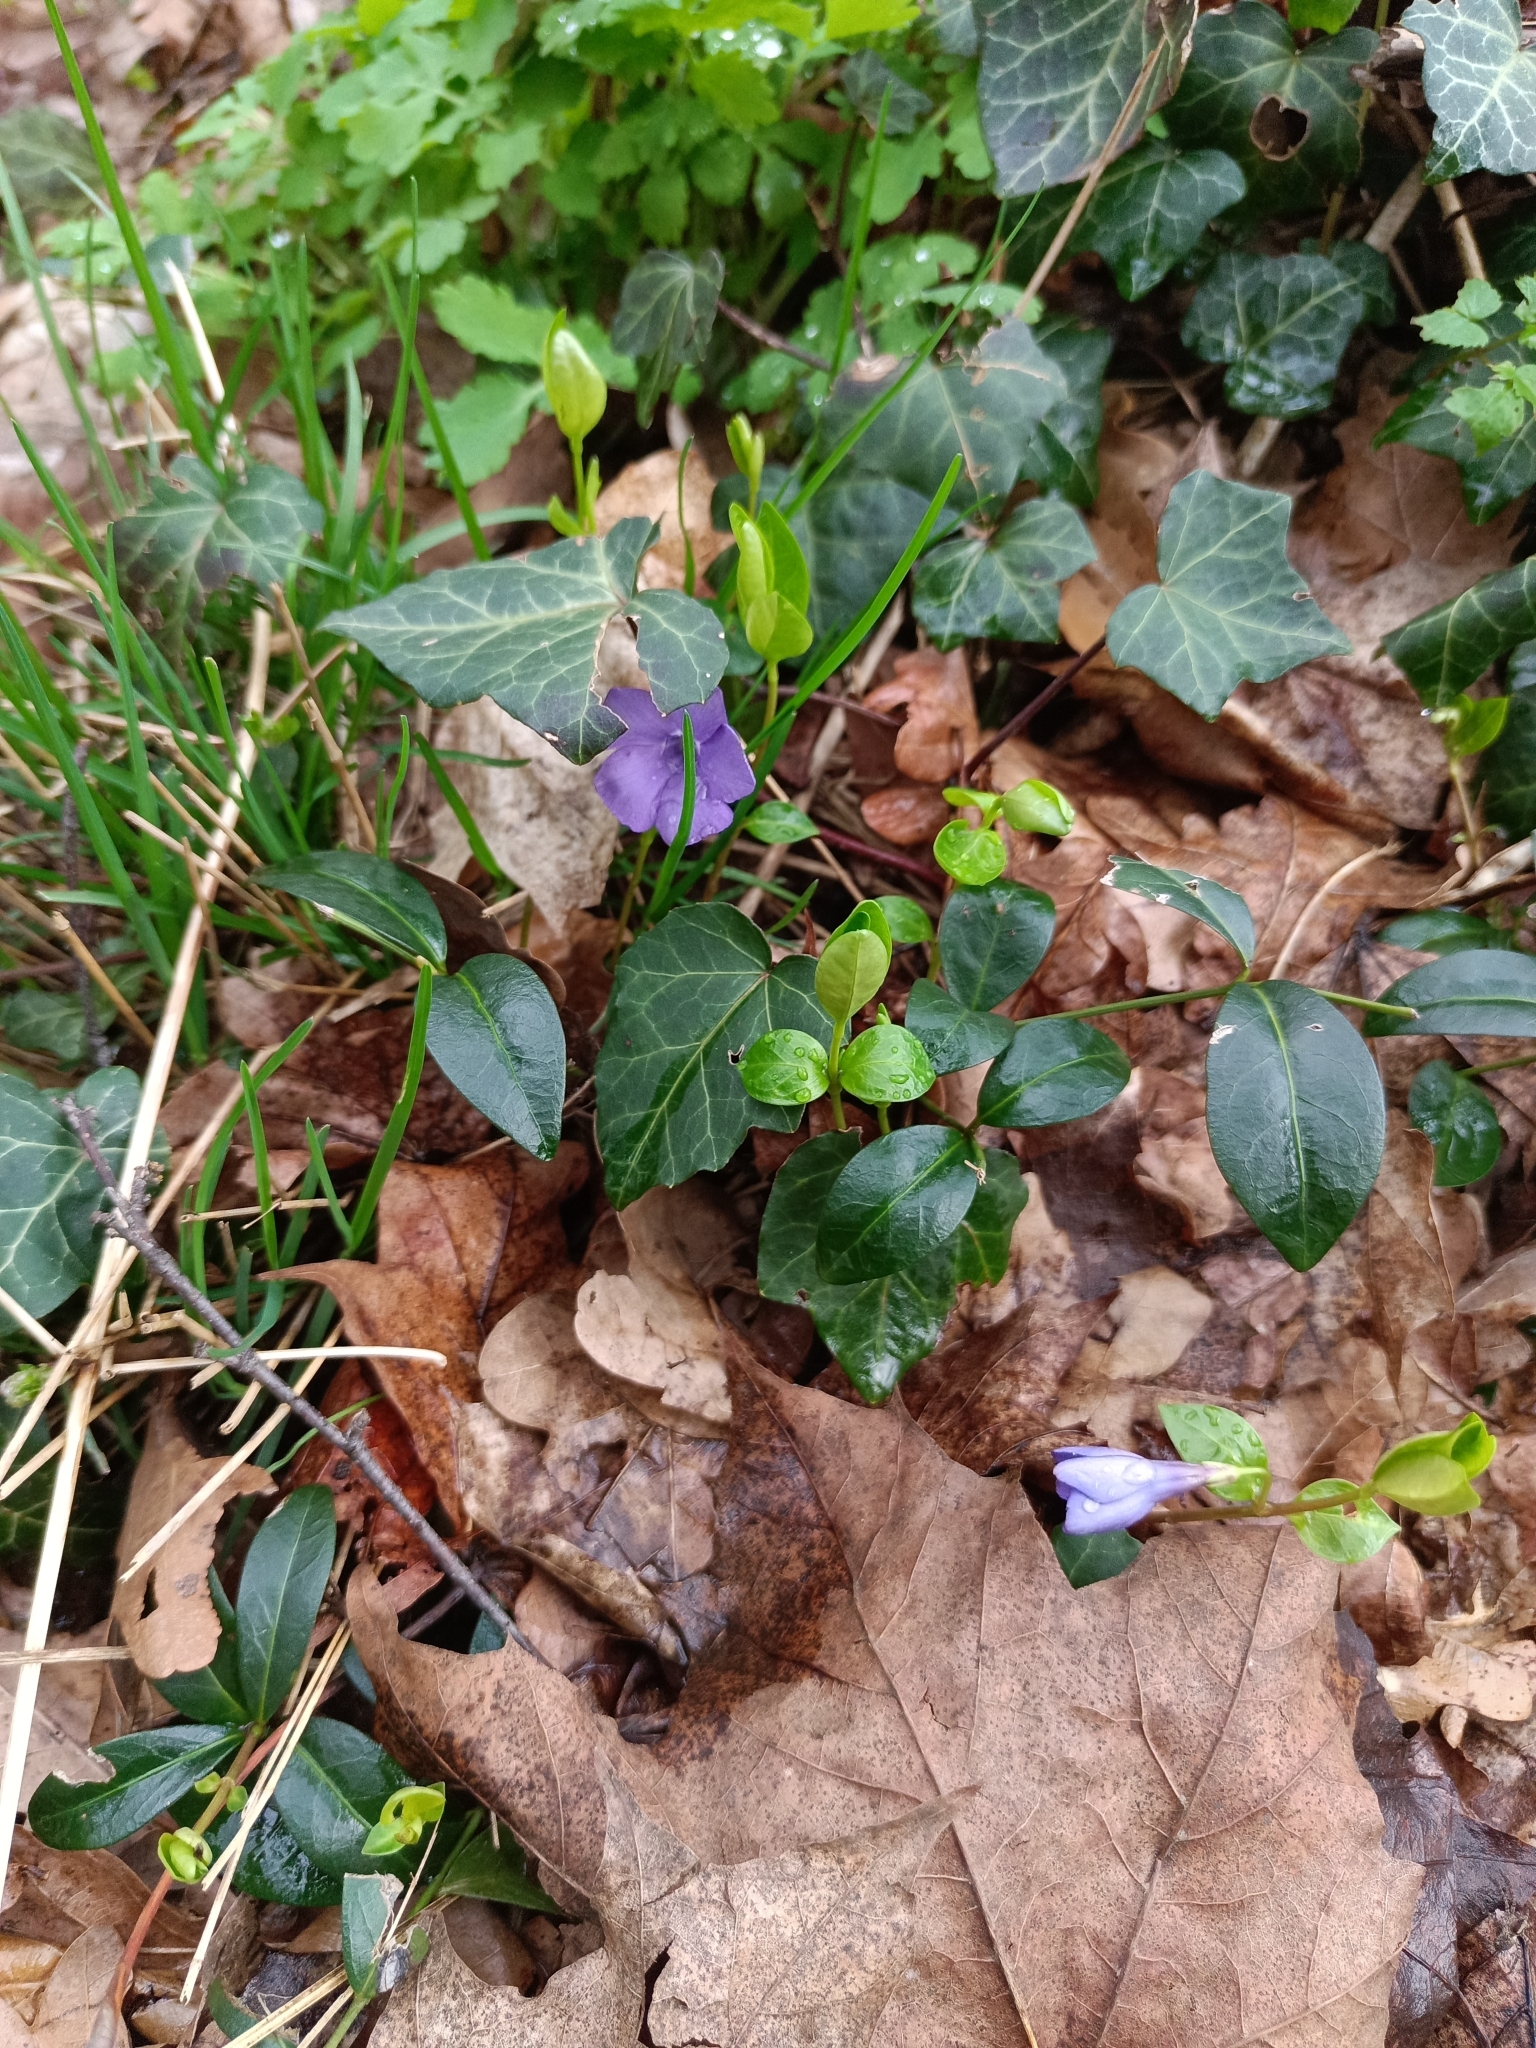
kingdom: Plantae
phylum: Tracheophyta
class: Magnoliopsida
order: Gentianales
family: Apocynaceae
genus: Vinca
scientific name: Vinca minor
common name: Lesser periwinkle
